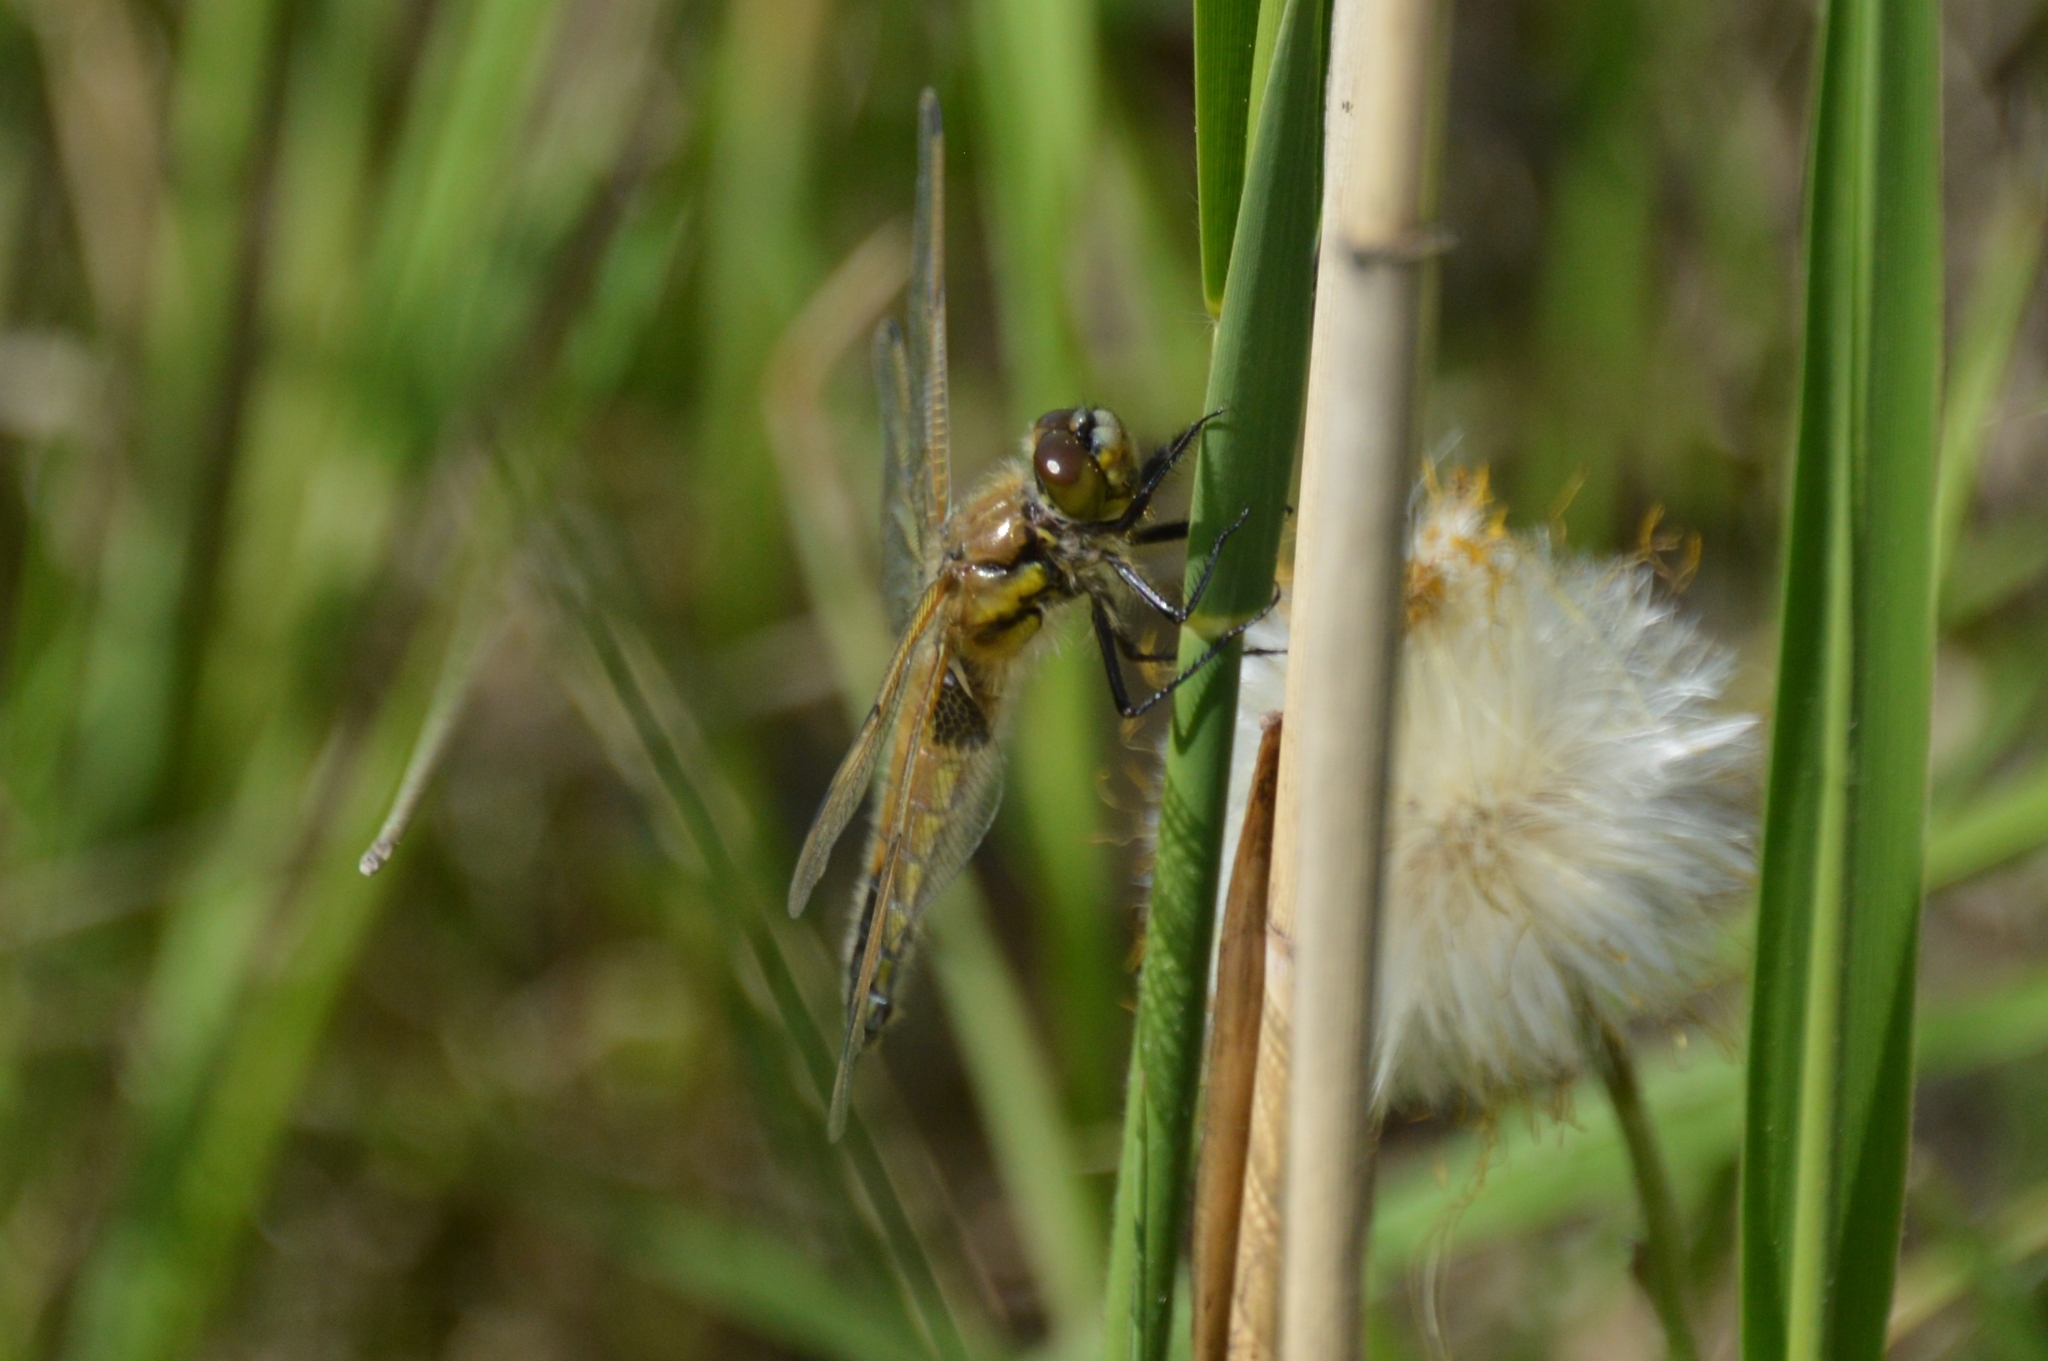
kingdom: Animalia
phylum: Arthropoda
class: Insecta
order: Odonata
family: Libellulidae
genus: Libellula
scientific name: Libellula quadrimaculata
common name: Four-spotted chaser
